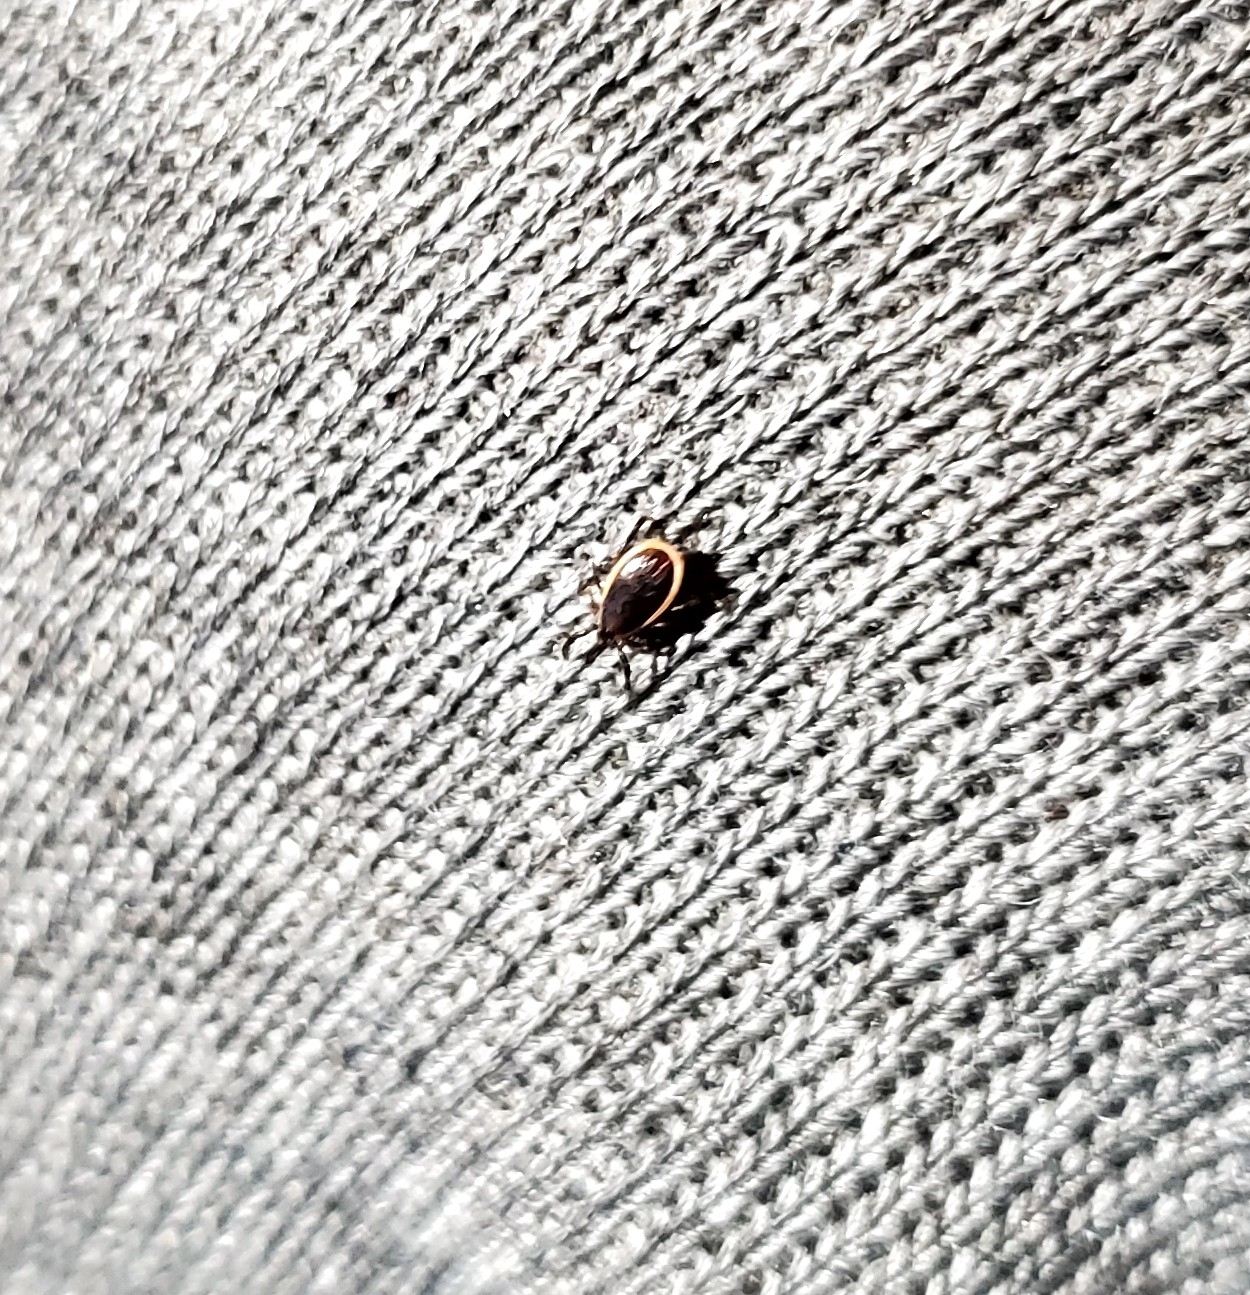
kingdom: Animalia
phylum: Arthropoda
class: Arachnida
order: Ixodida
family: Ixodidae
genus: Ixodes
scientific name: Ixodes scapularis
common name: Black legged tick
